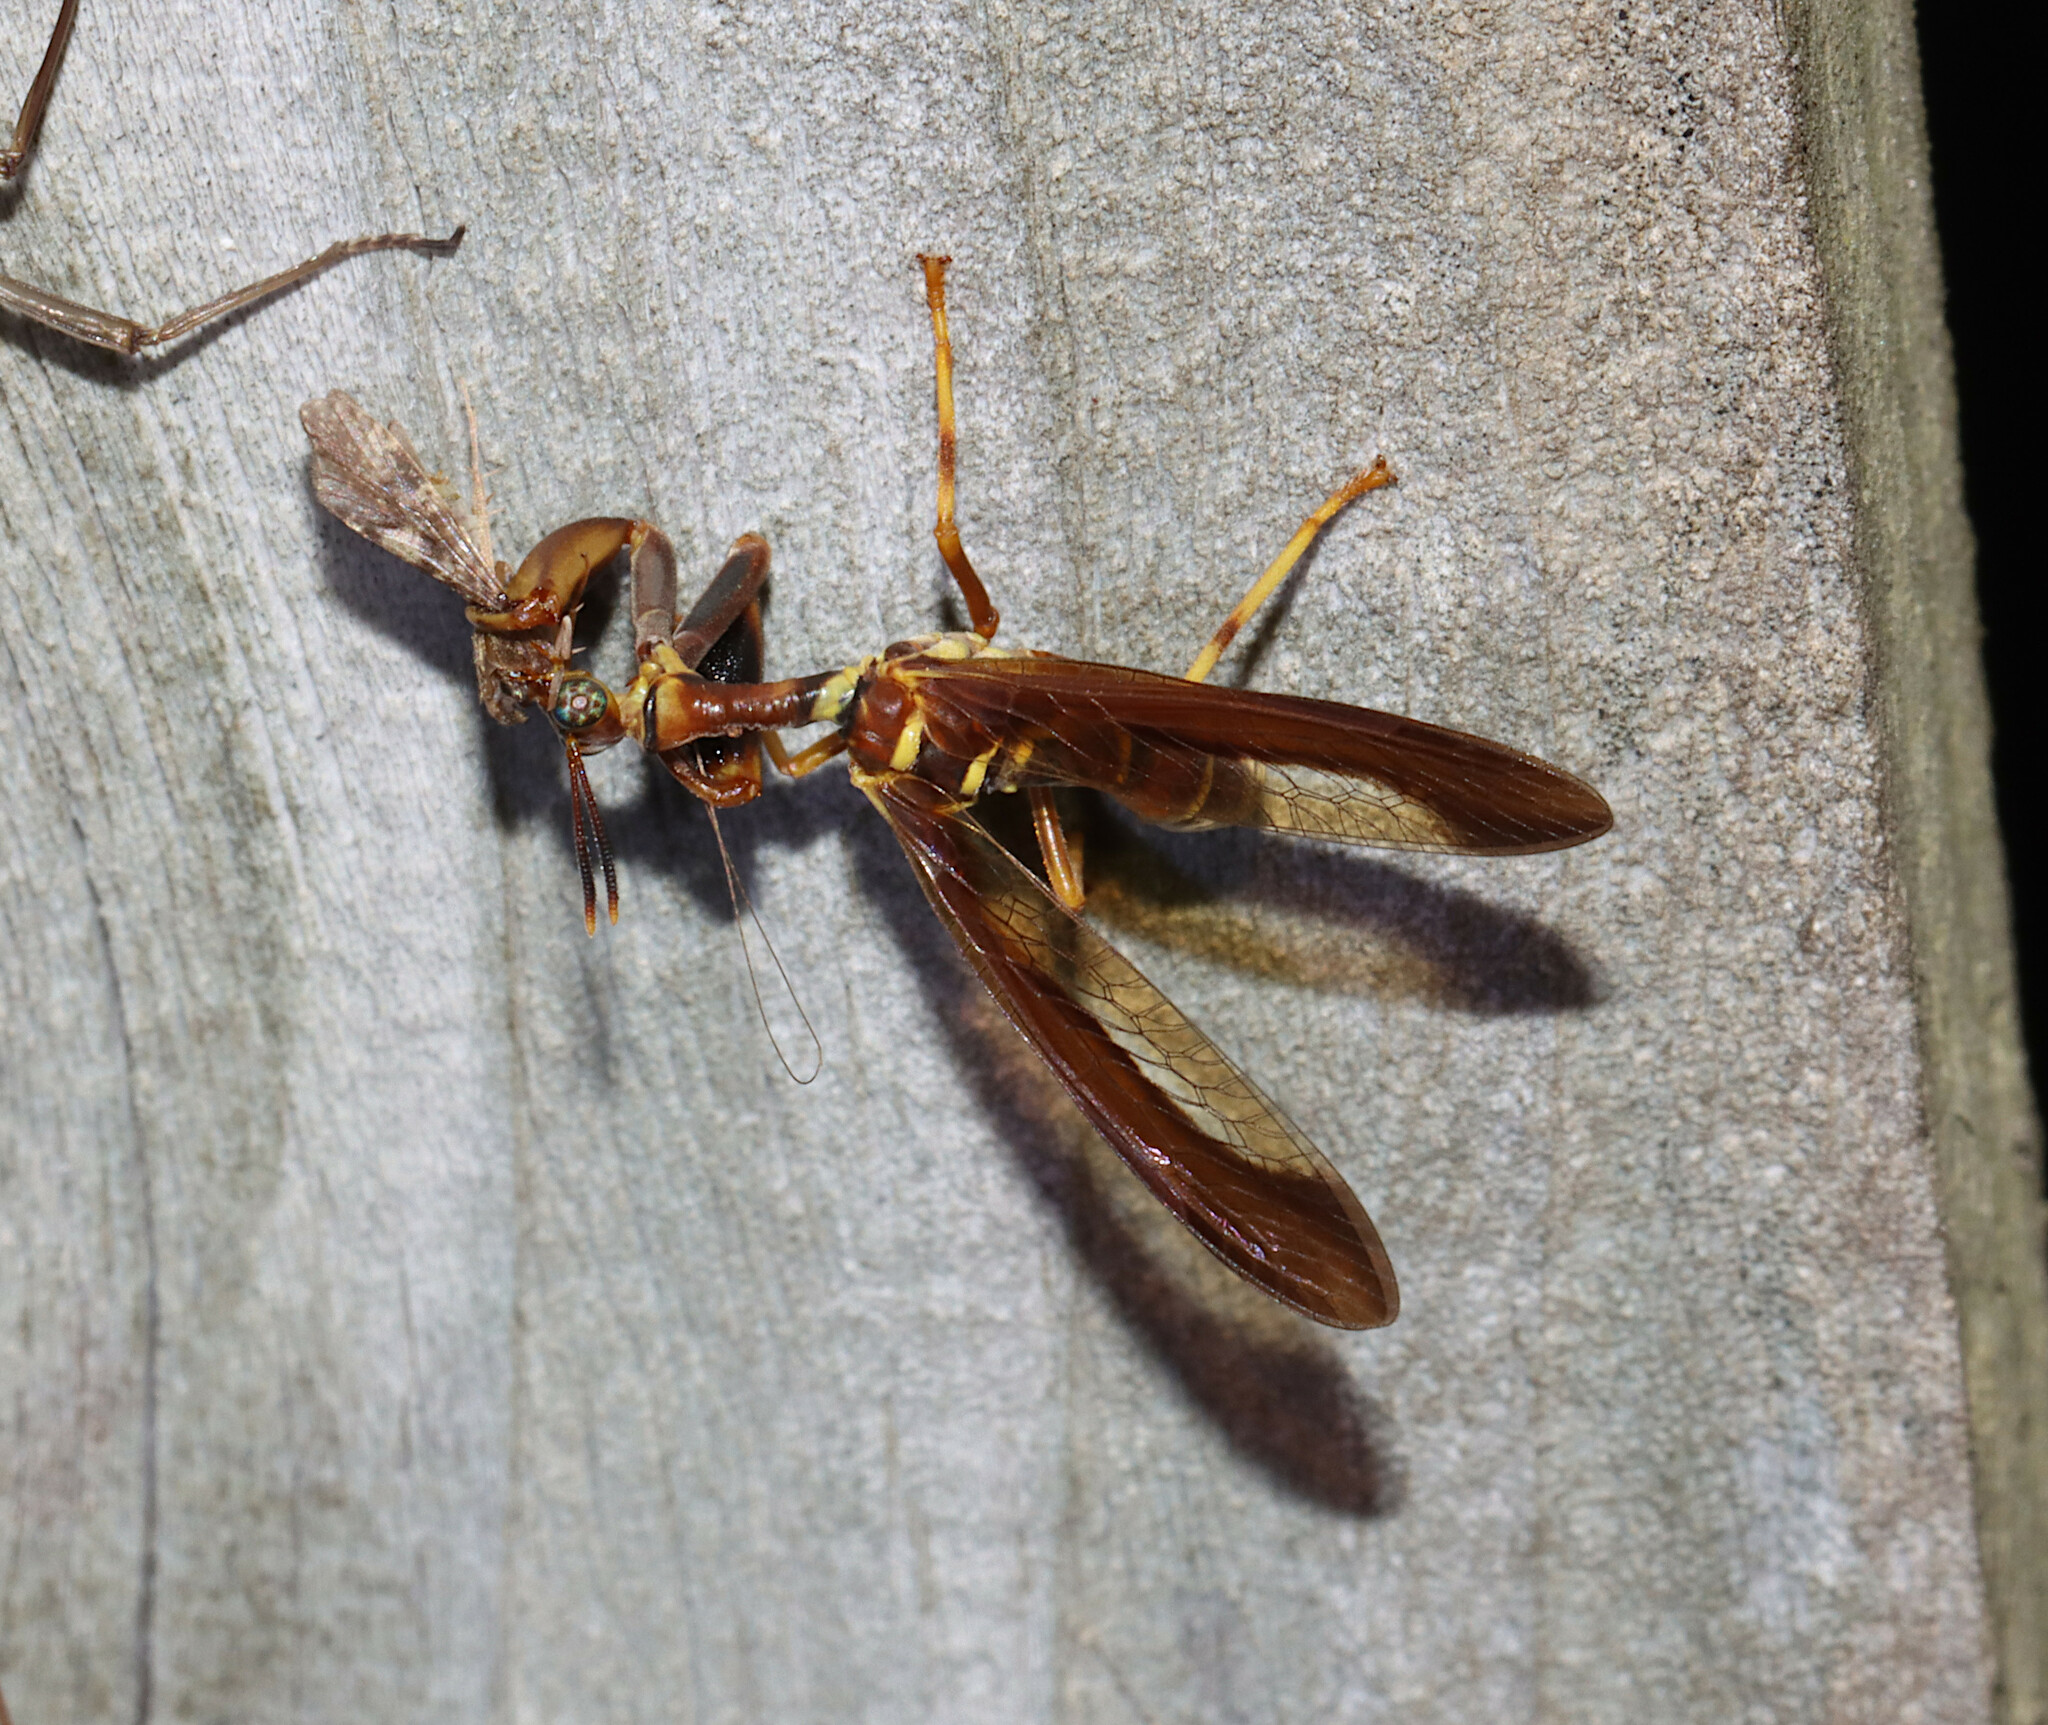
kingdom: Animalia
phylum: Arthropoda
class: Insecta
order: Neuroptera
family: Mantispidae
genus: Climaciella
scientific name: Climaciella brunnea
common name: Brown wasp mantidfly
